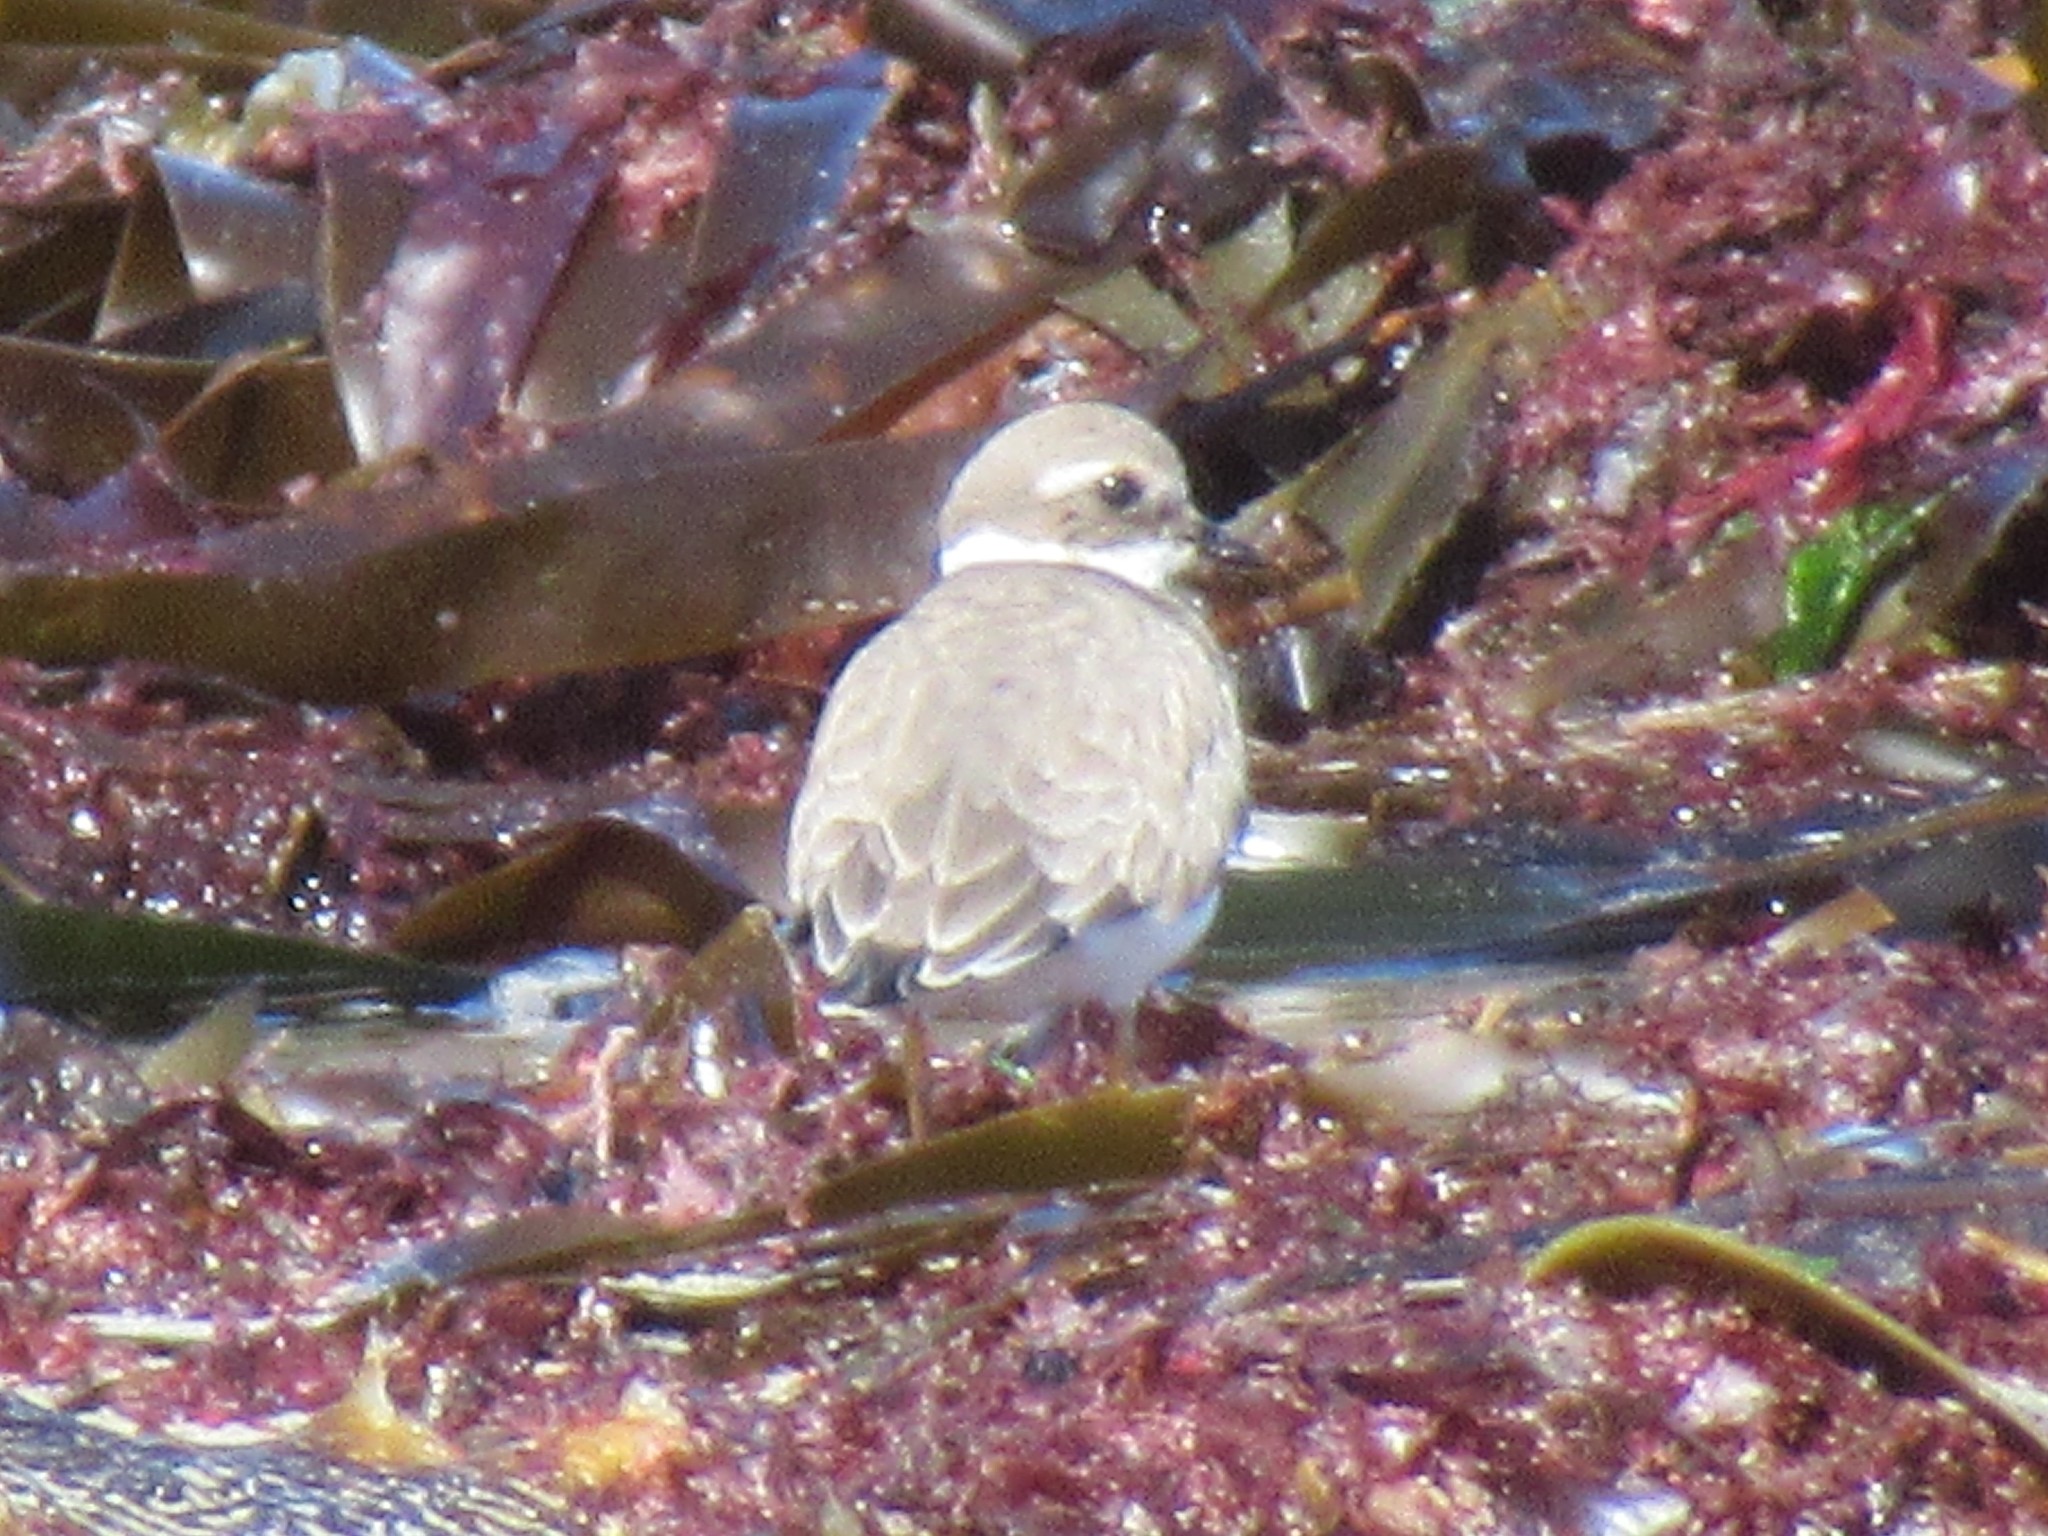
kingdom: Animalia
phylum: Chordata
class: Aves
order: Charadriiformes
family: Charadriidae
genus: Charadrius
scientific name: Charadrius hiaticula
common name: Common ringed plover
